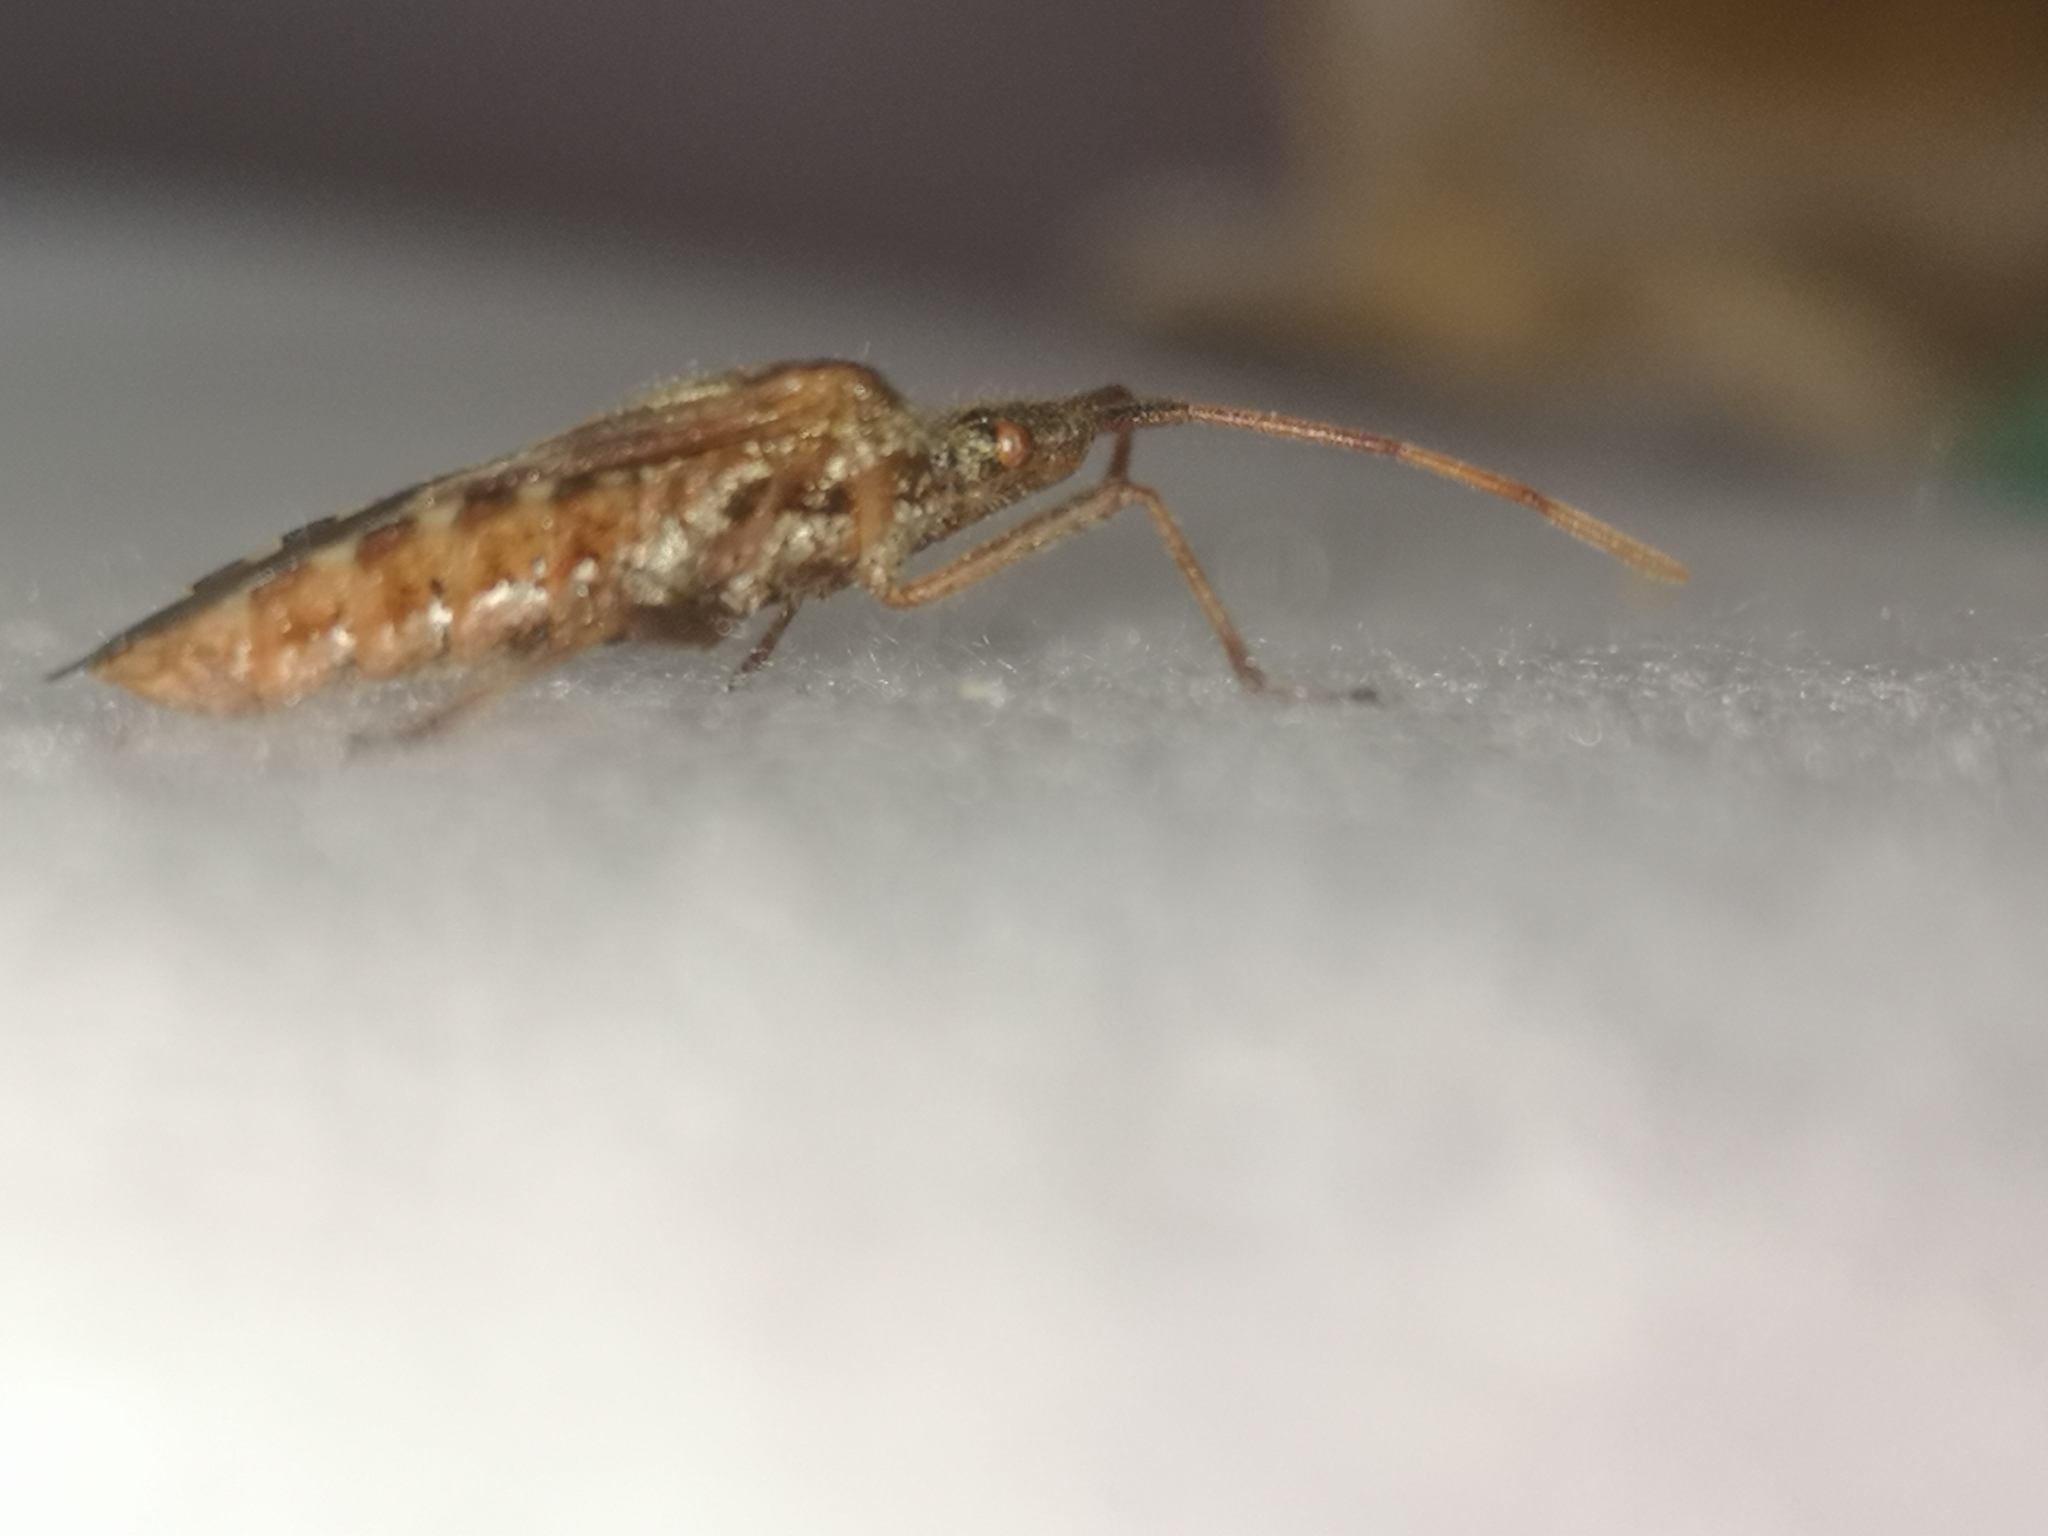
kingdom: Animalia
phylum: Arthropoda
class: Insecta
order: Hemiptera
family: Coreidae
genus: Leptoglossus
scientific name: Leptoglossus occidentalis
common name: Western conifer-seed bug
